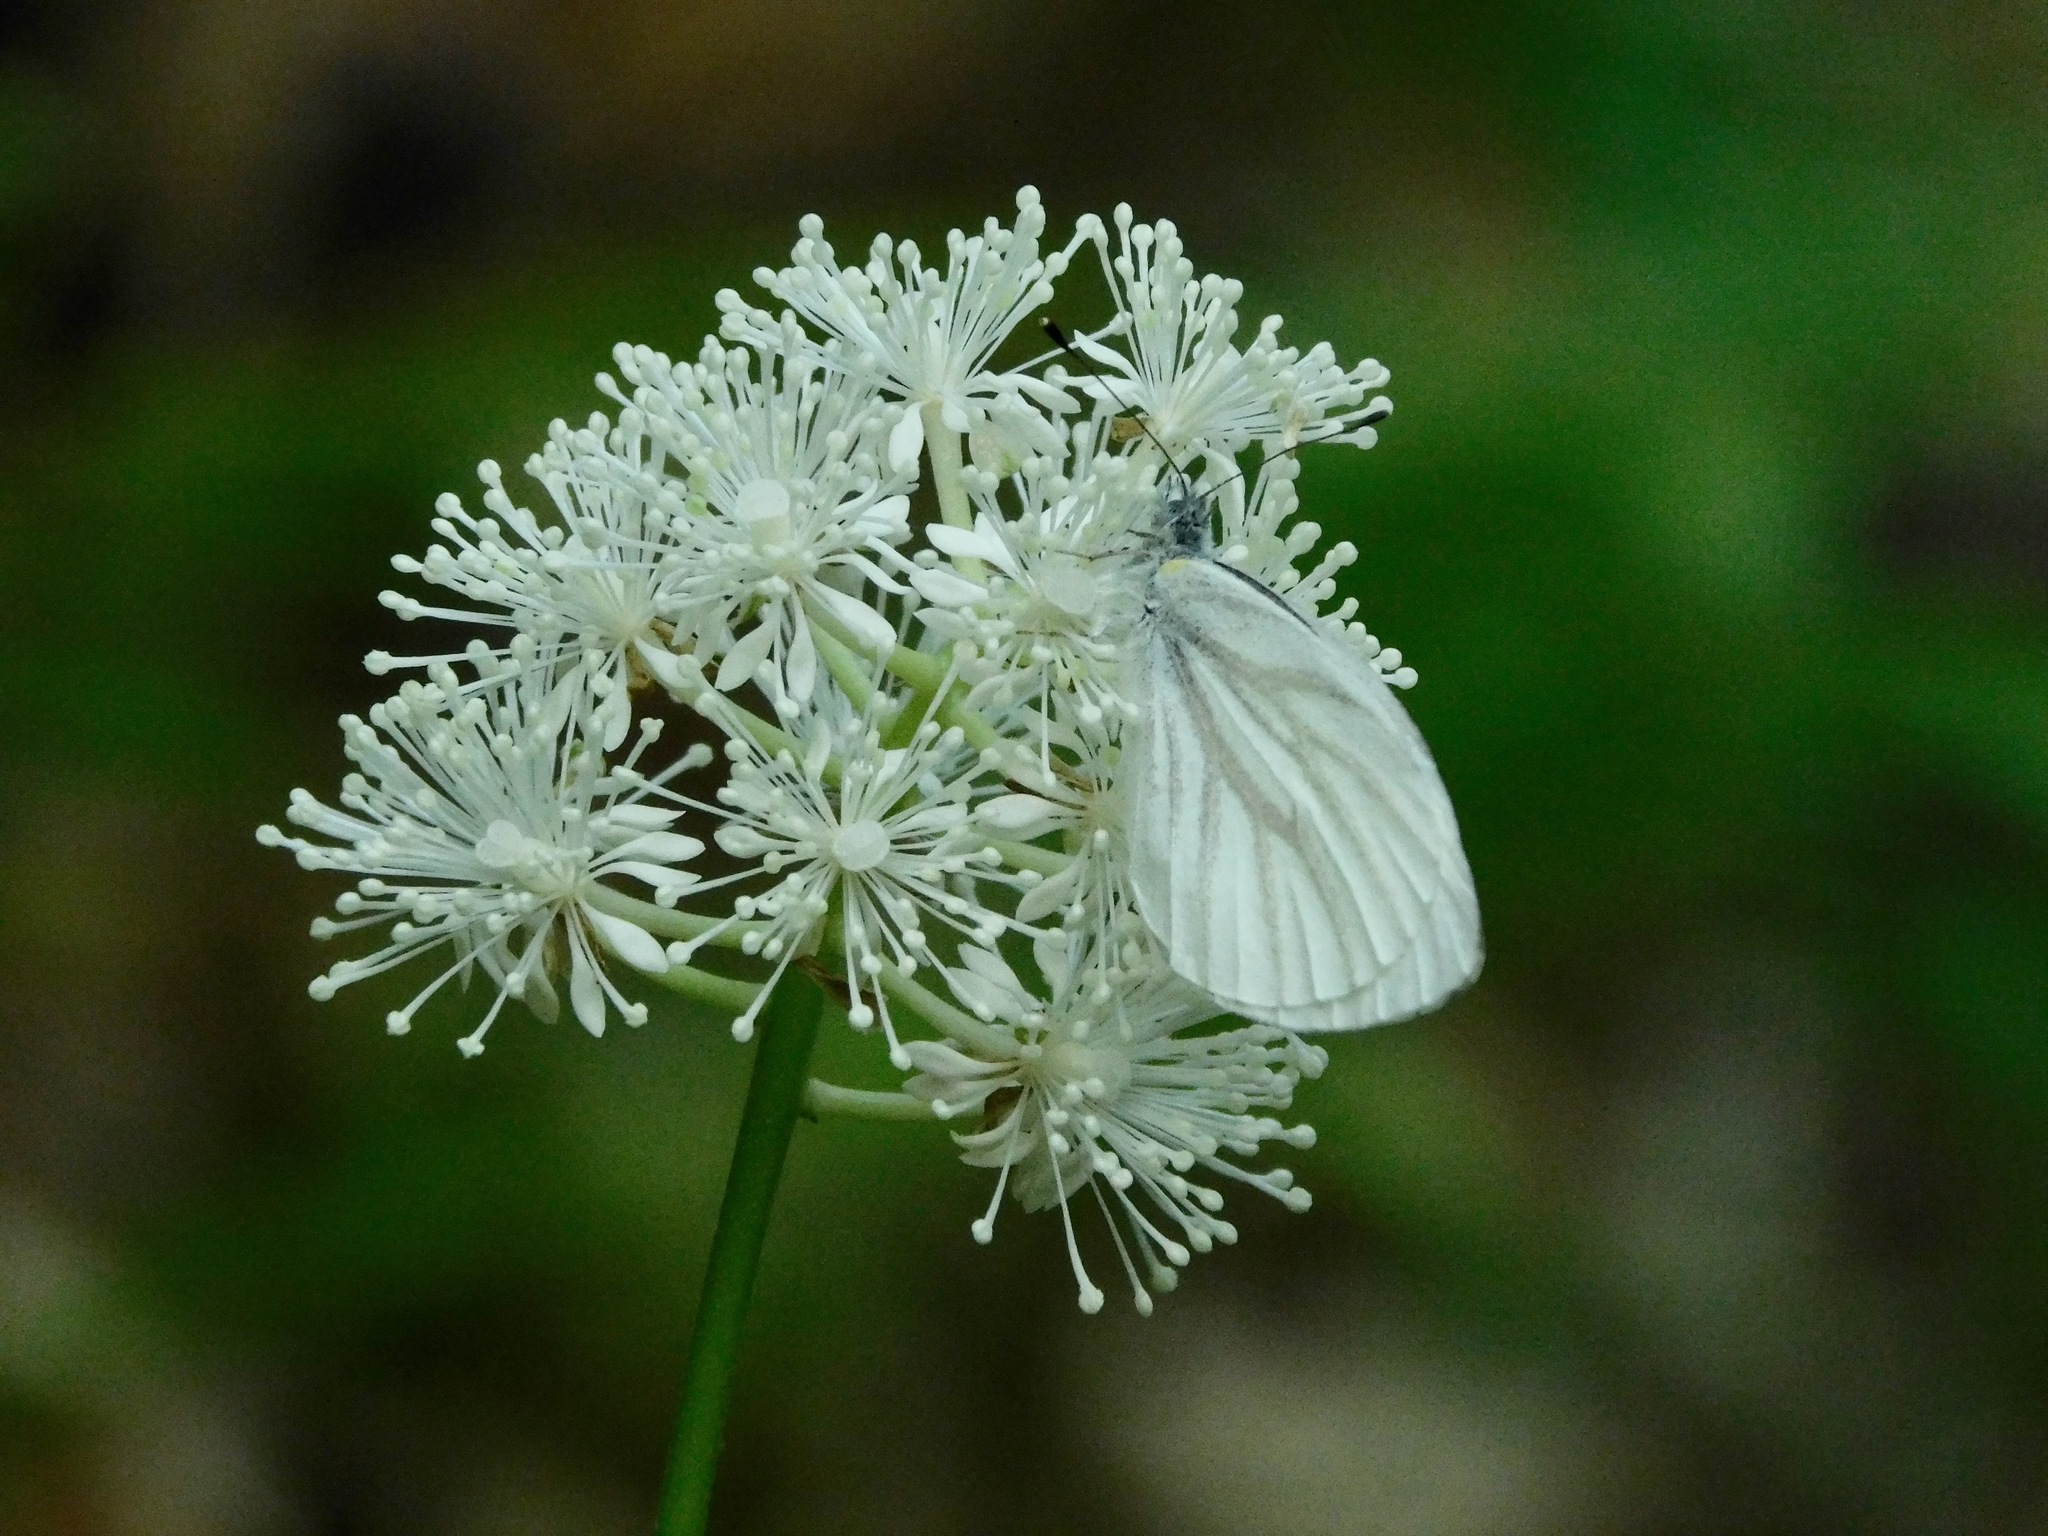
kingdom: Plantae
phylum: Tracheophyta
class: Magnoliopsida
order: Ranunculales
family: Ranunculaceae
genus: Actaea
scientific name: Actaea pachypoda
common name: Doll's-eyes
